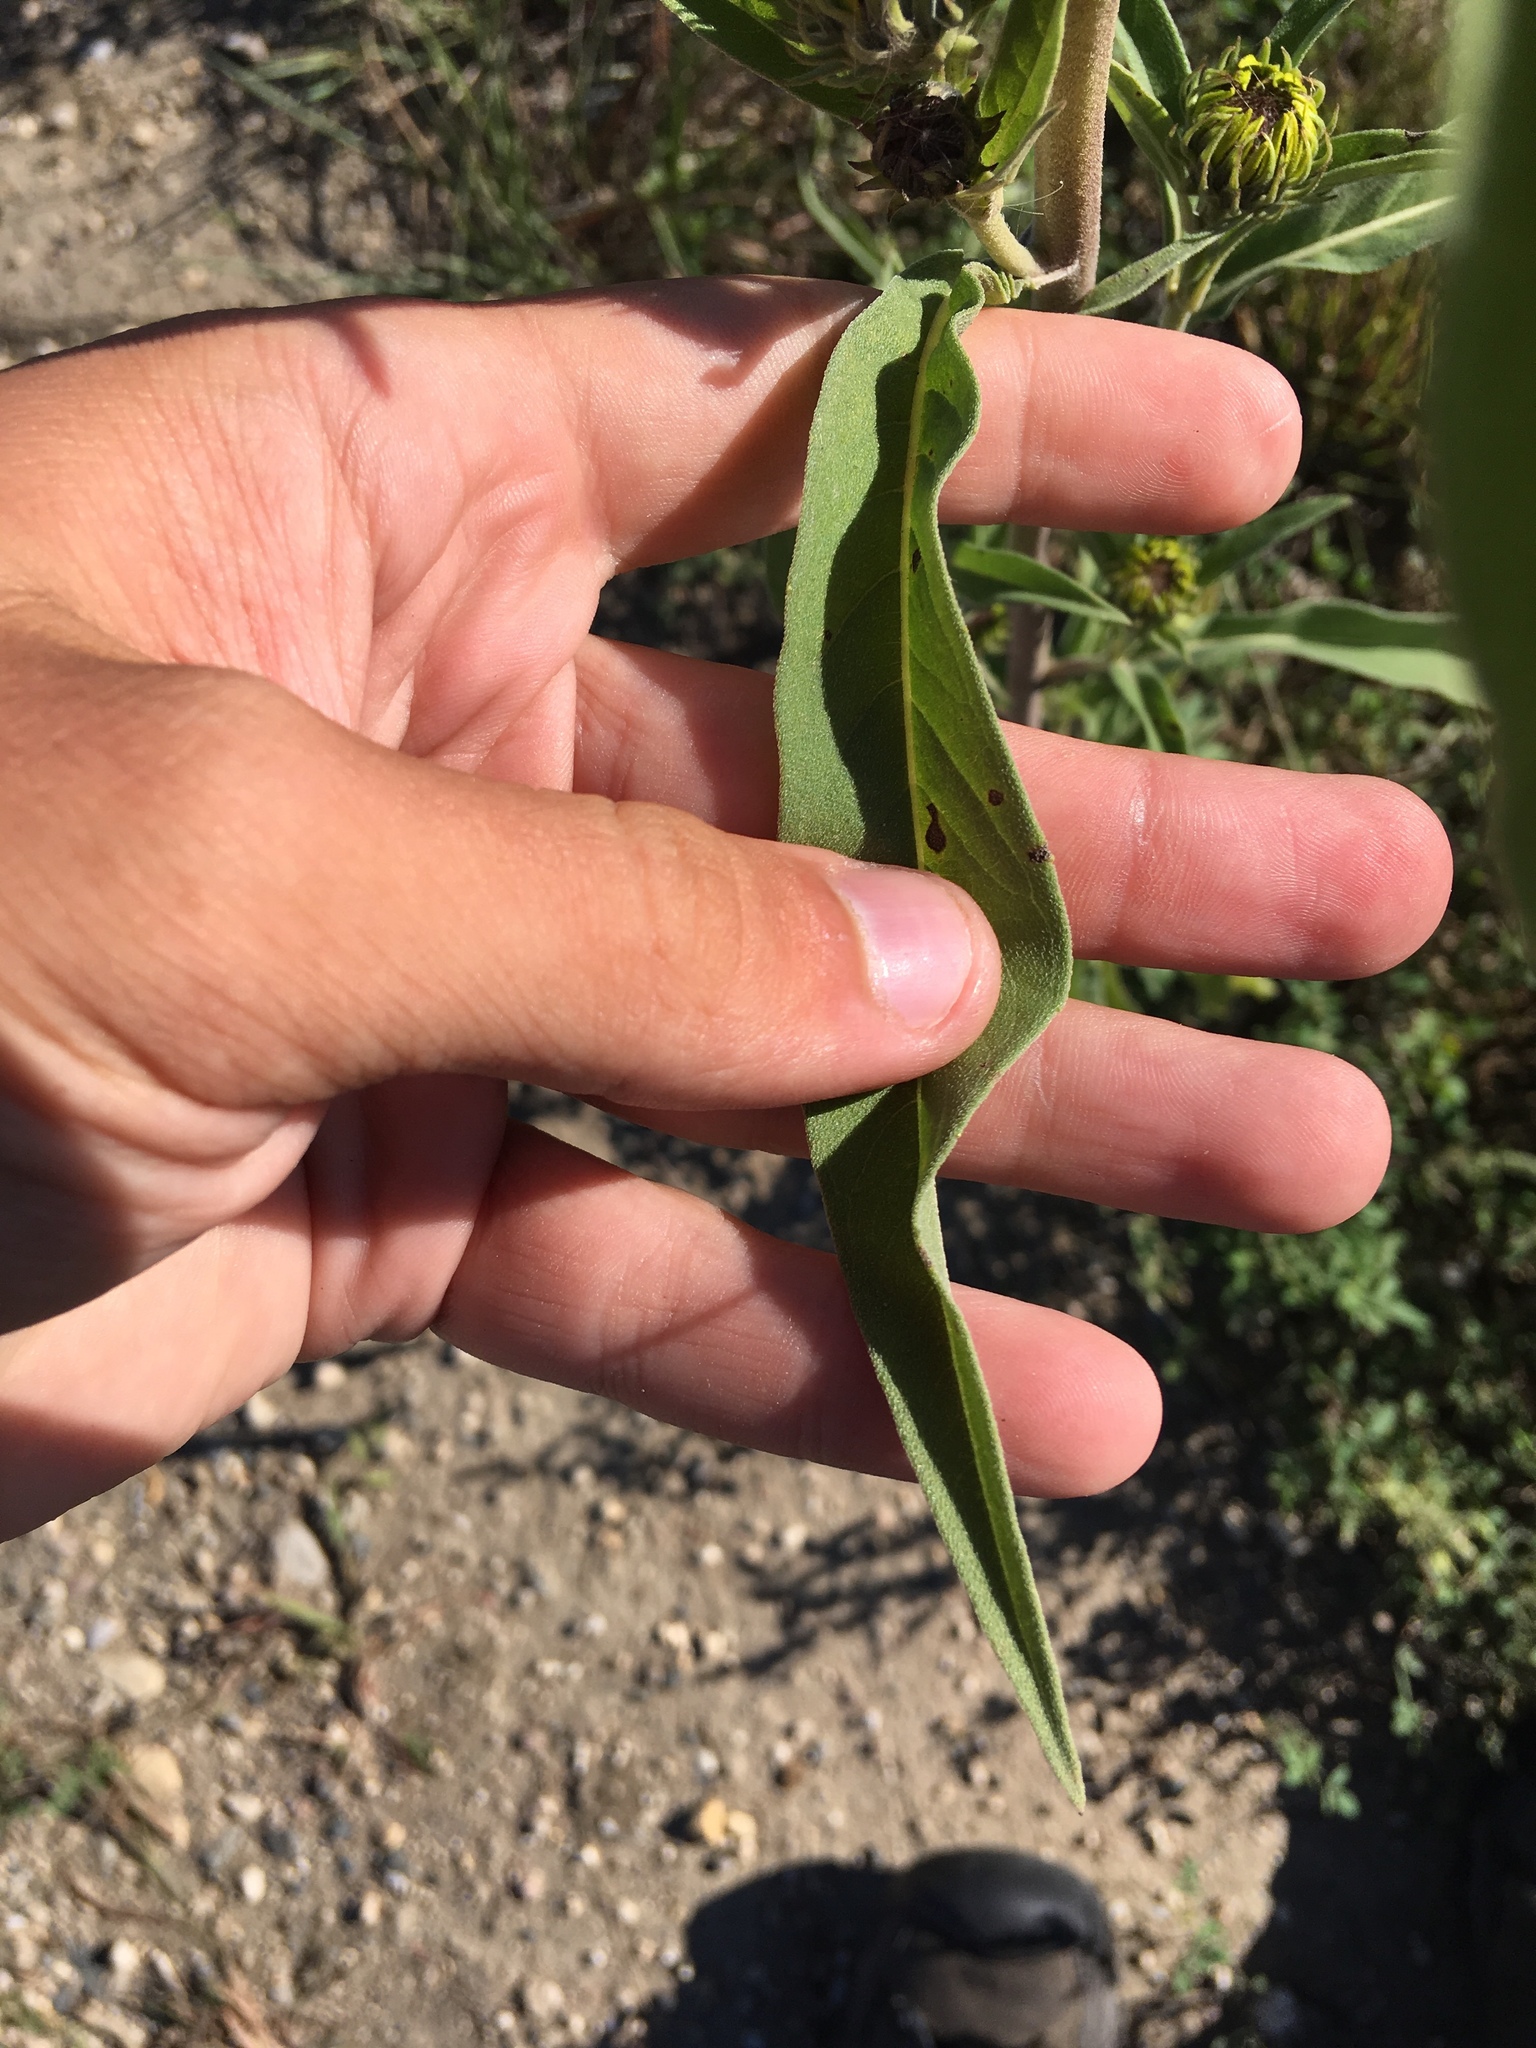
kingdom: Plantae
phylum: Tracheophyta
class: Magnoliopsida
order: Asterales
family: Asteraceae
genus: Helianthus
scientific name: Helianthus maximiliani
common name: Maximilian's sunflower
